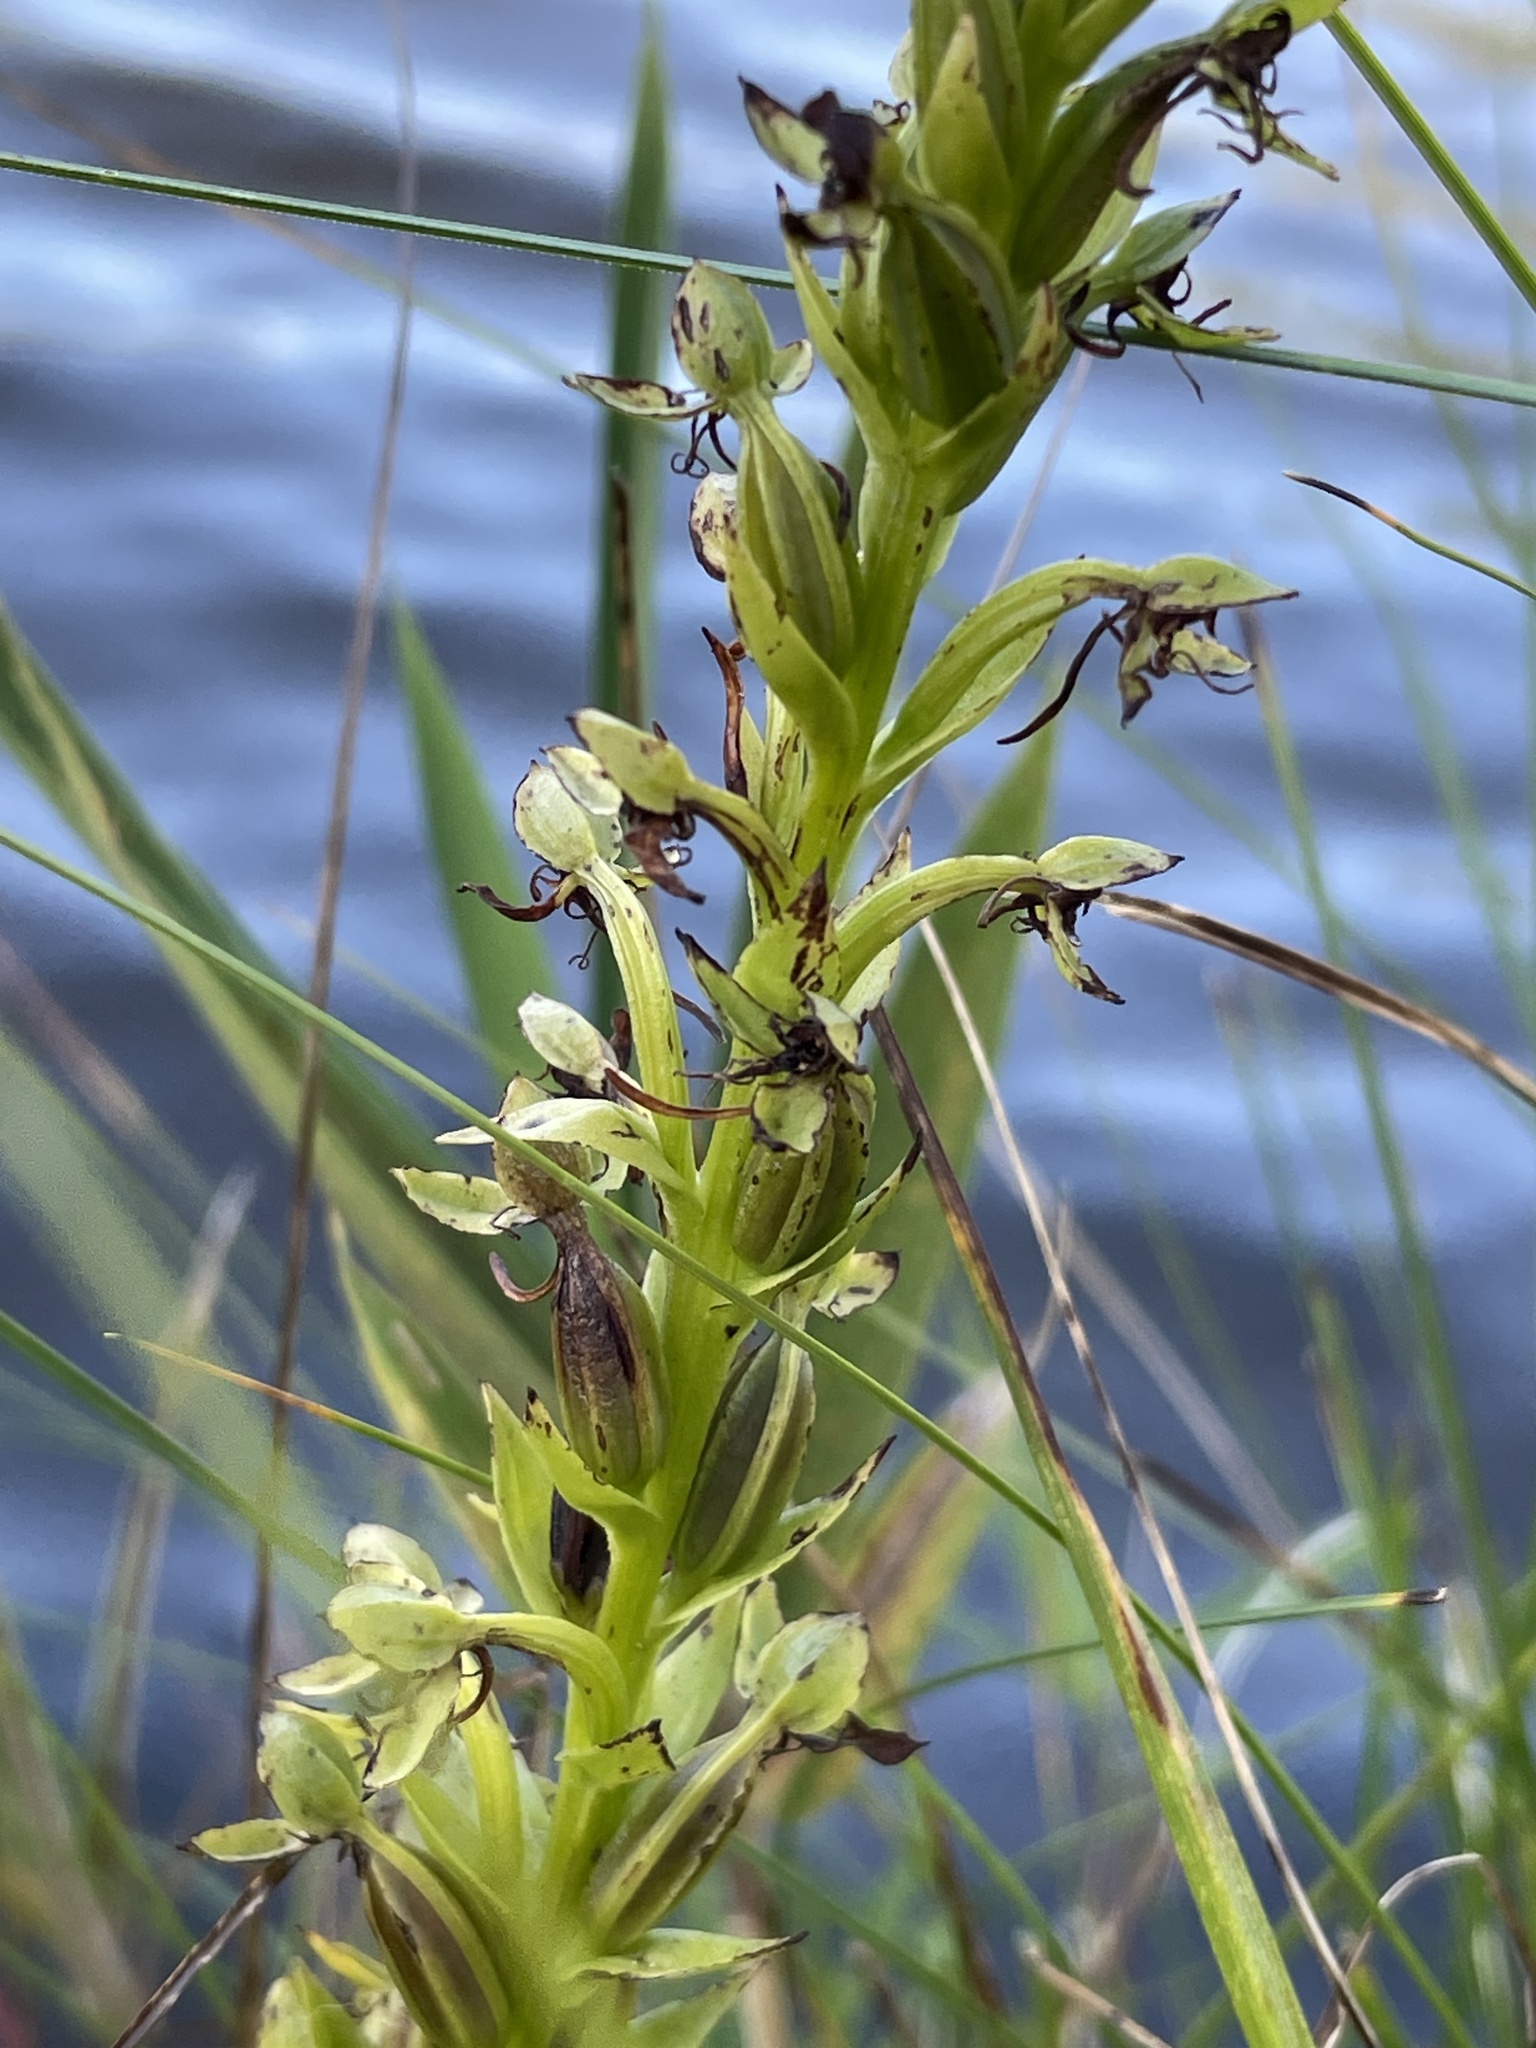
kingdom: Plantae
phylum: Tracheophyta
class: Liliopsida
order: Asparagales
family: Orchidaceae
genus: Habenaria
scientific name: Habenaria repens
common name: Water orchid
